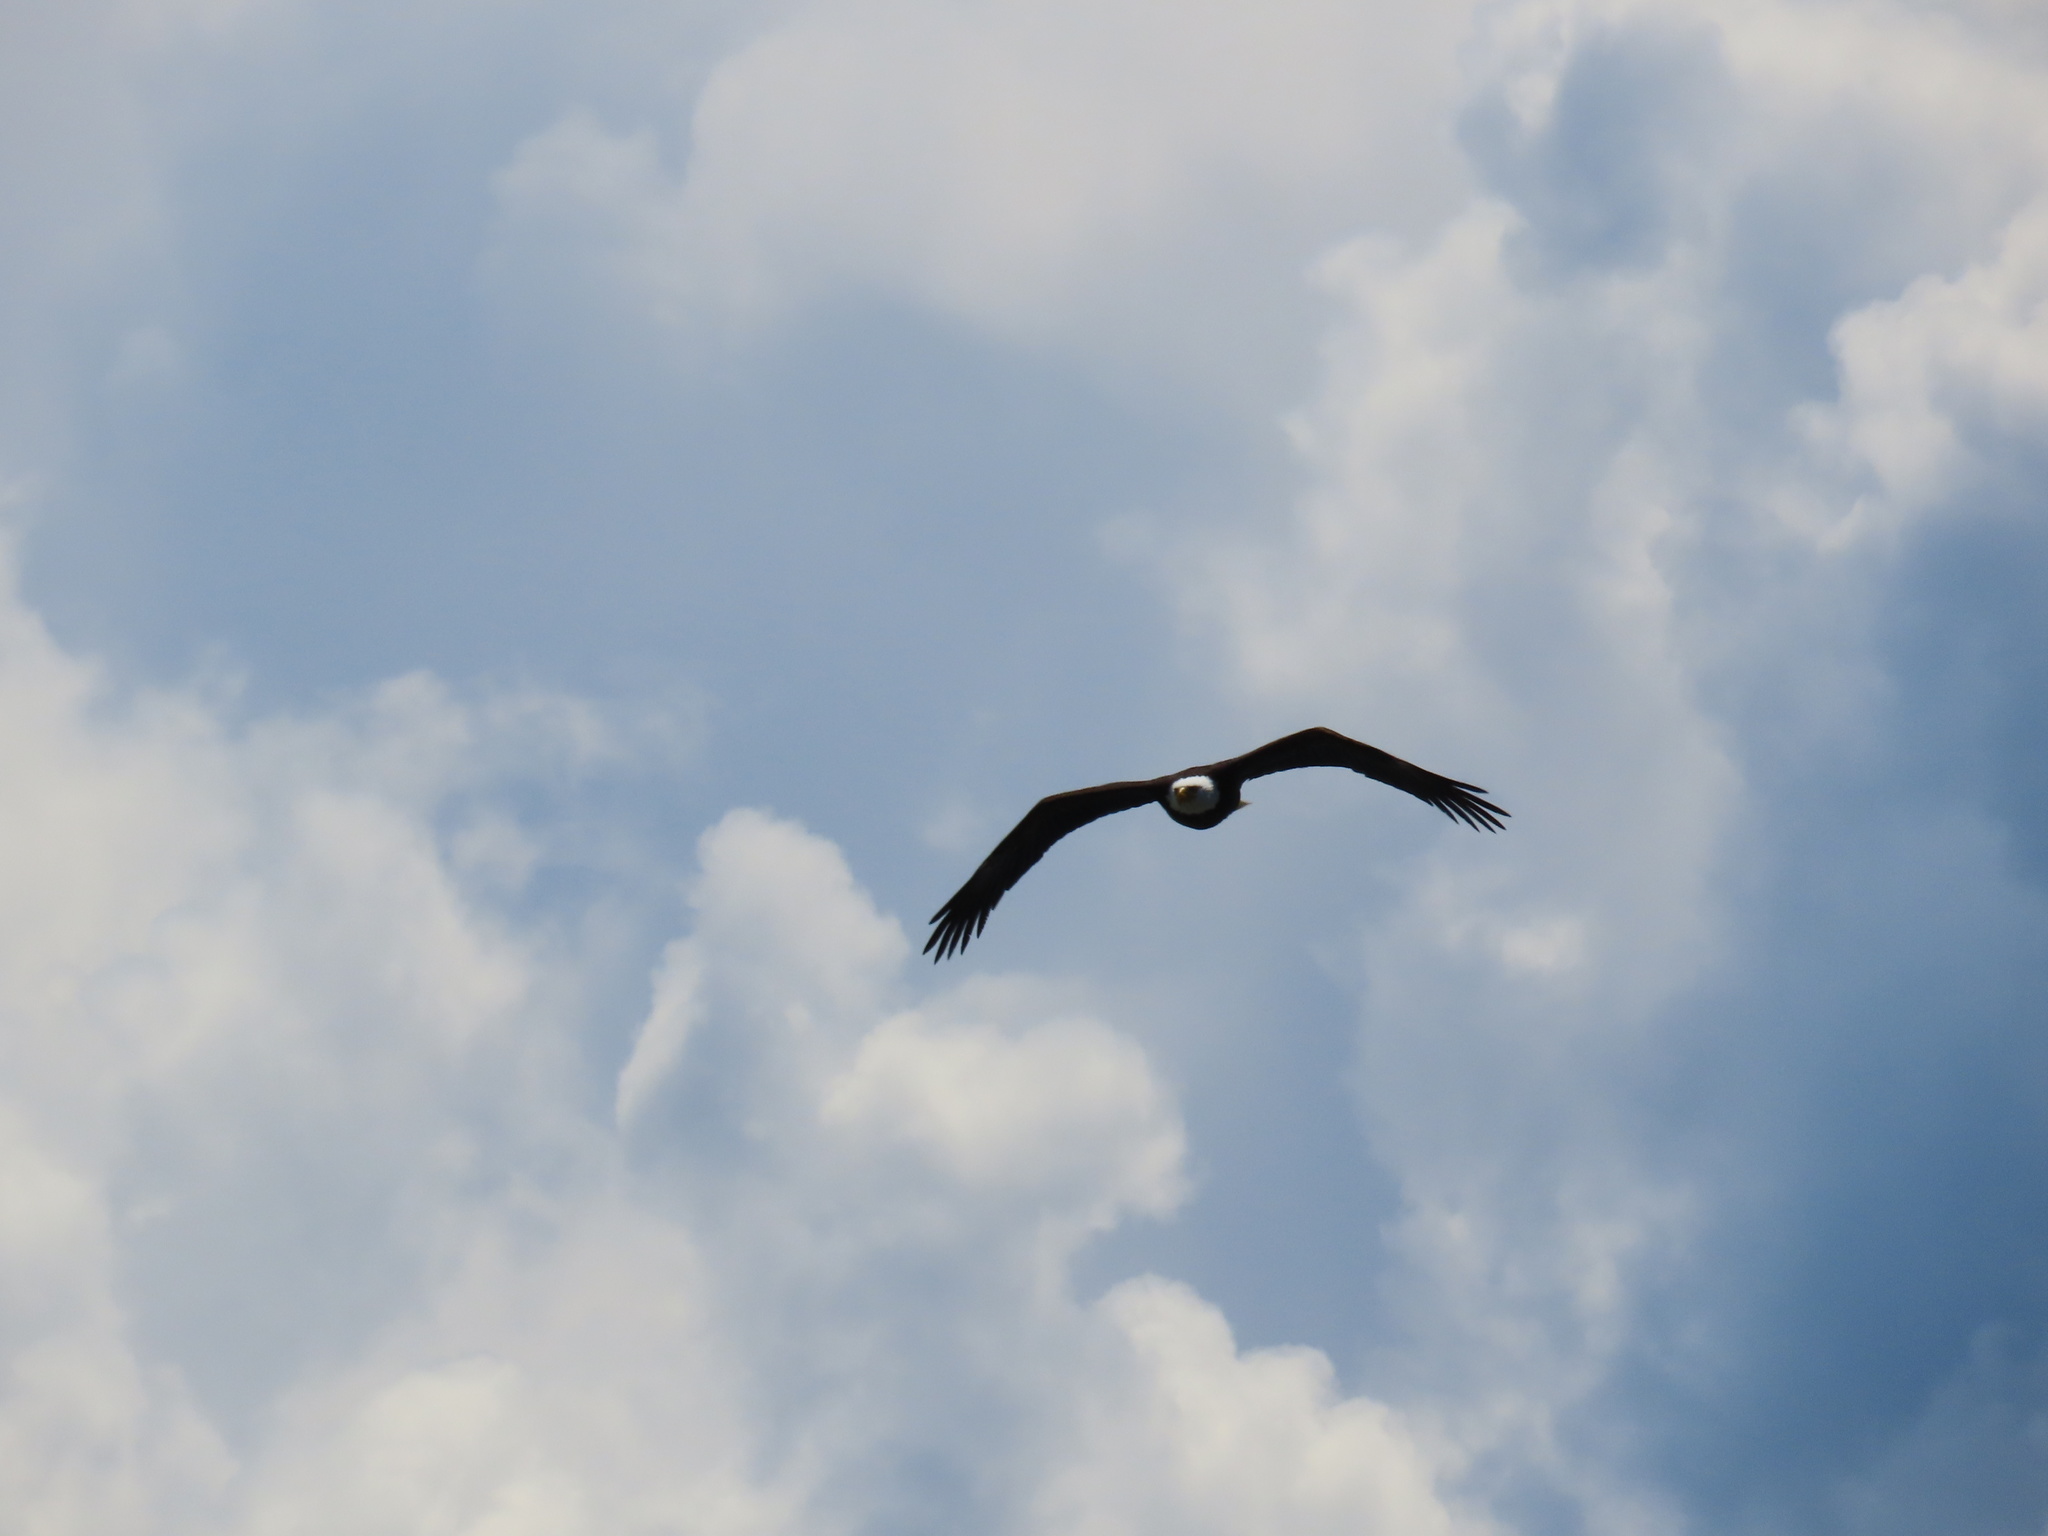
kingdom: Animalia
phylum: Chordata
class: Aves
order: Accipitriformes
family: Accipitridae
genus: Haliaeetus
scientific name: Haliaeetus leucocephalus
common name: Bald eagle
